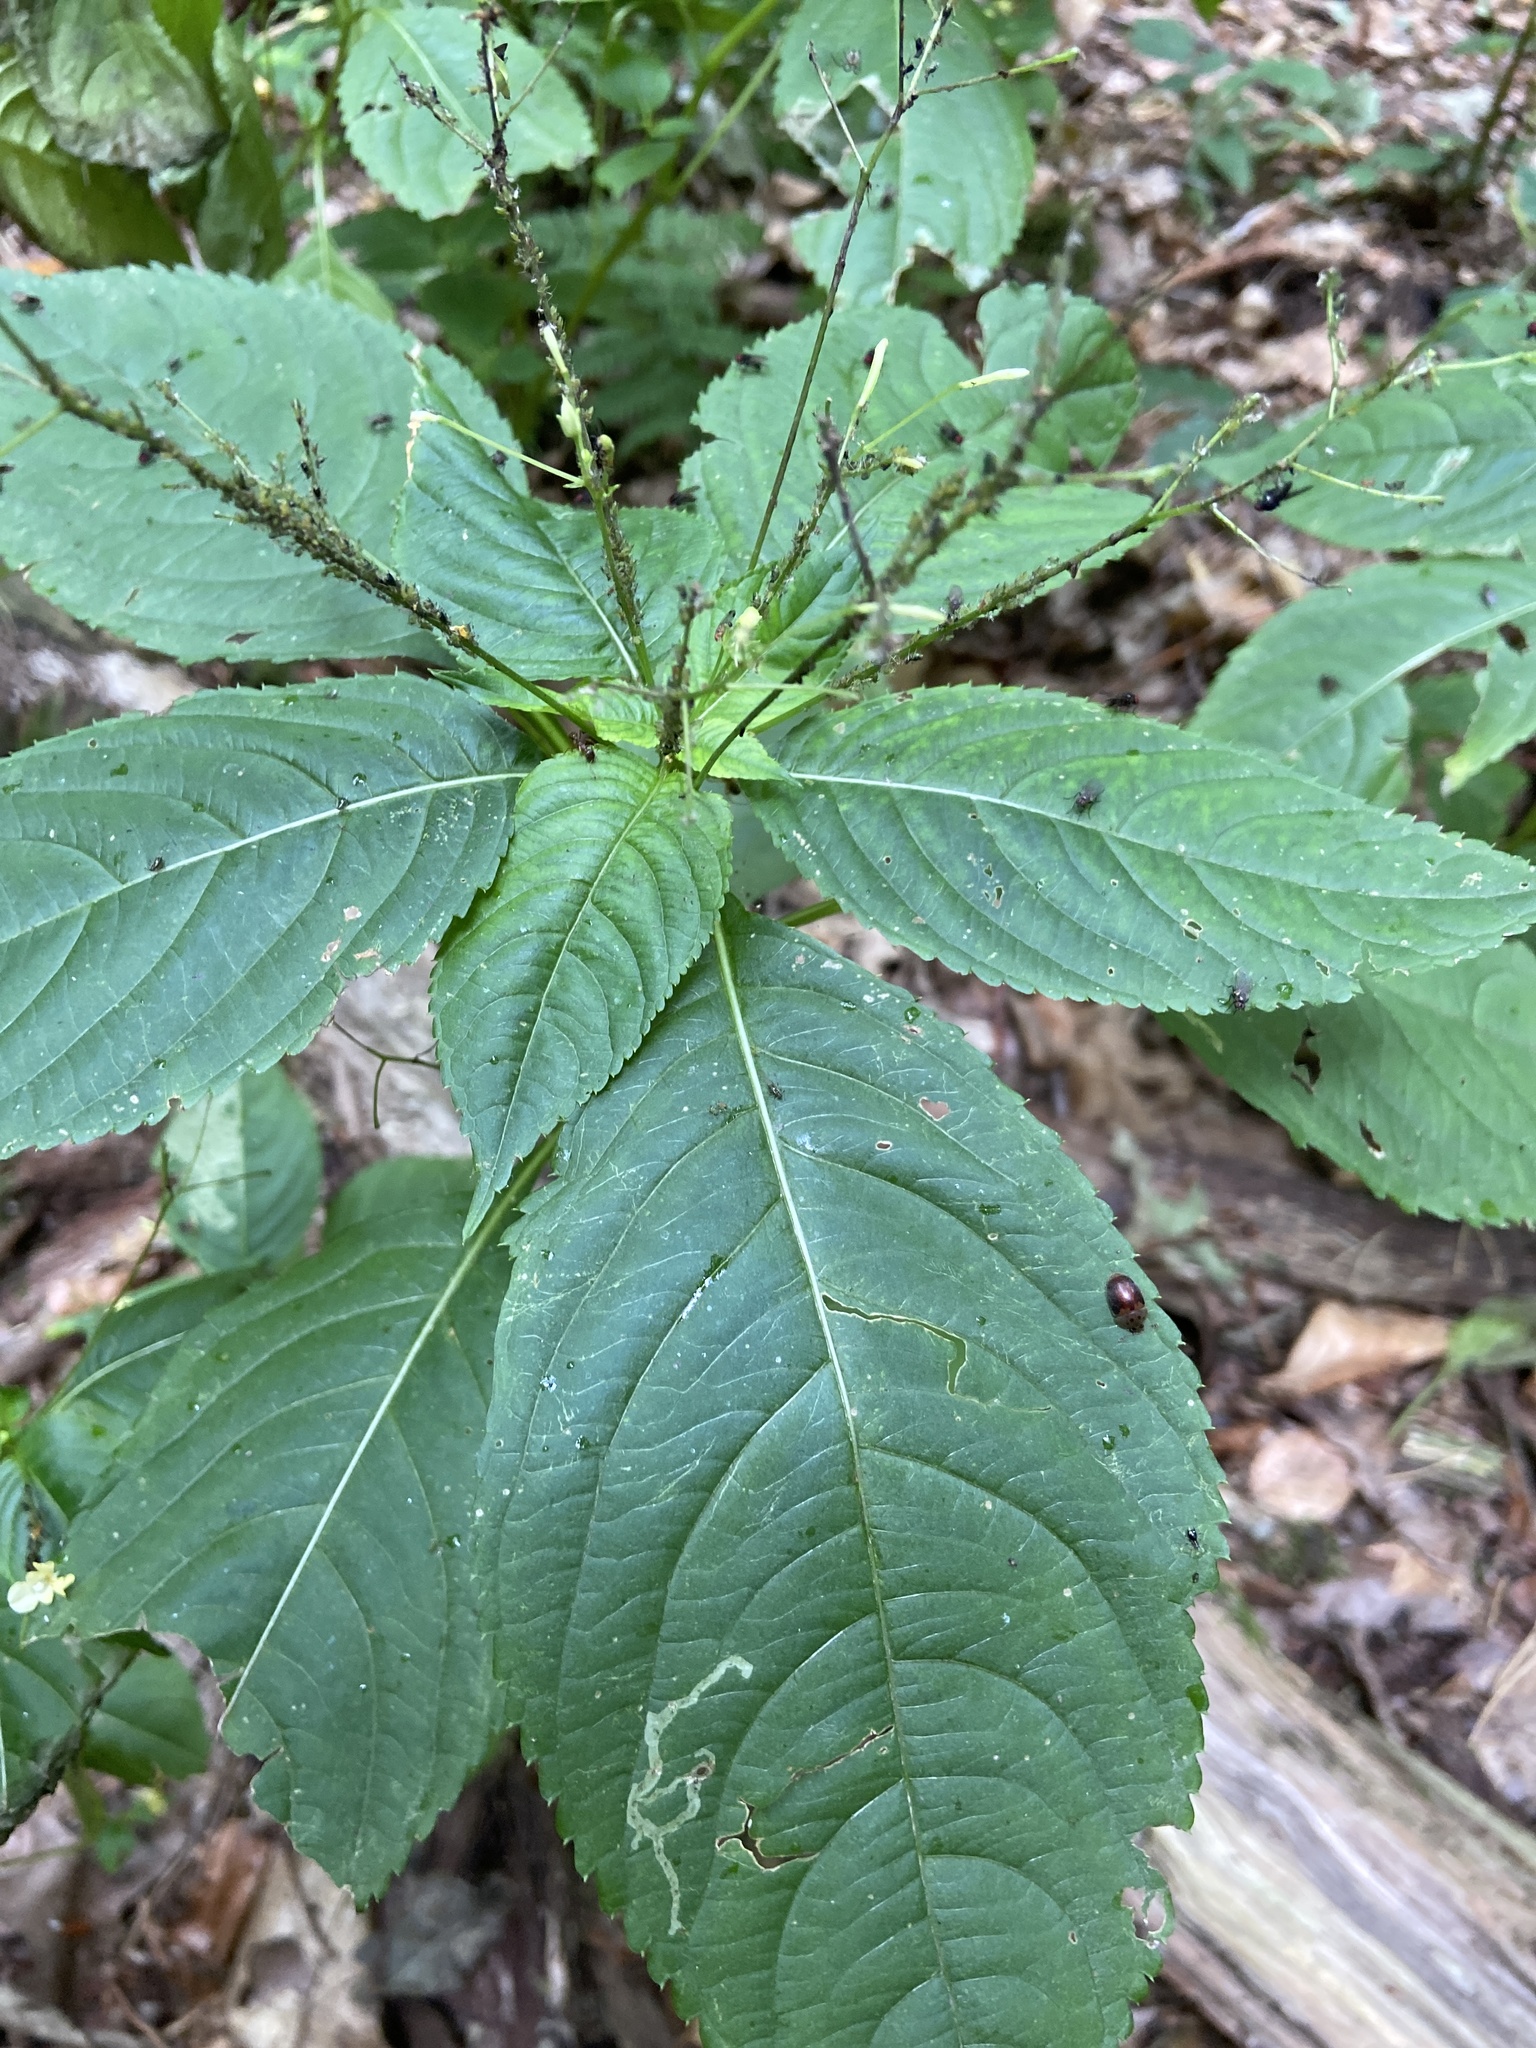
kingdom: Animalia
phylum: Arthropoda
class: Insecta
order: Hemiptera
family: Aphididae
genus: Impatientinum
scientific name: Impatientinum asiaticum
